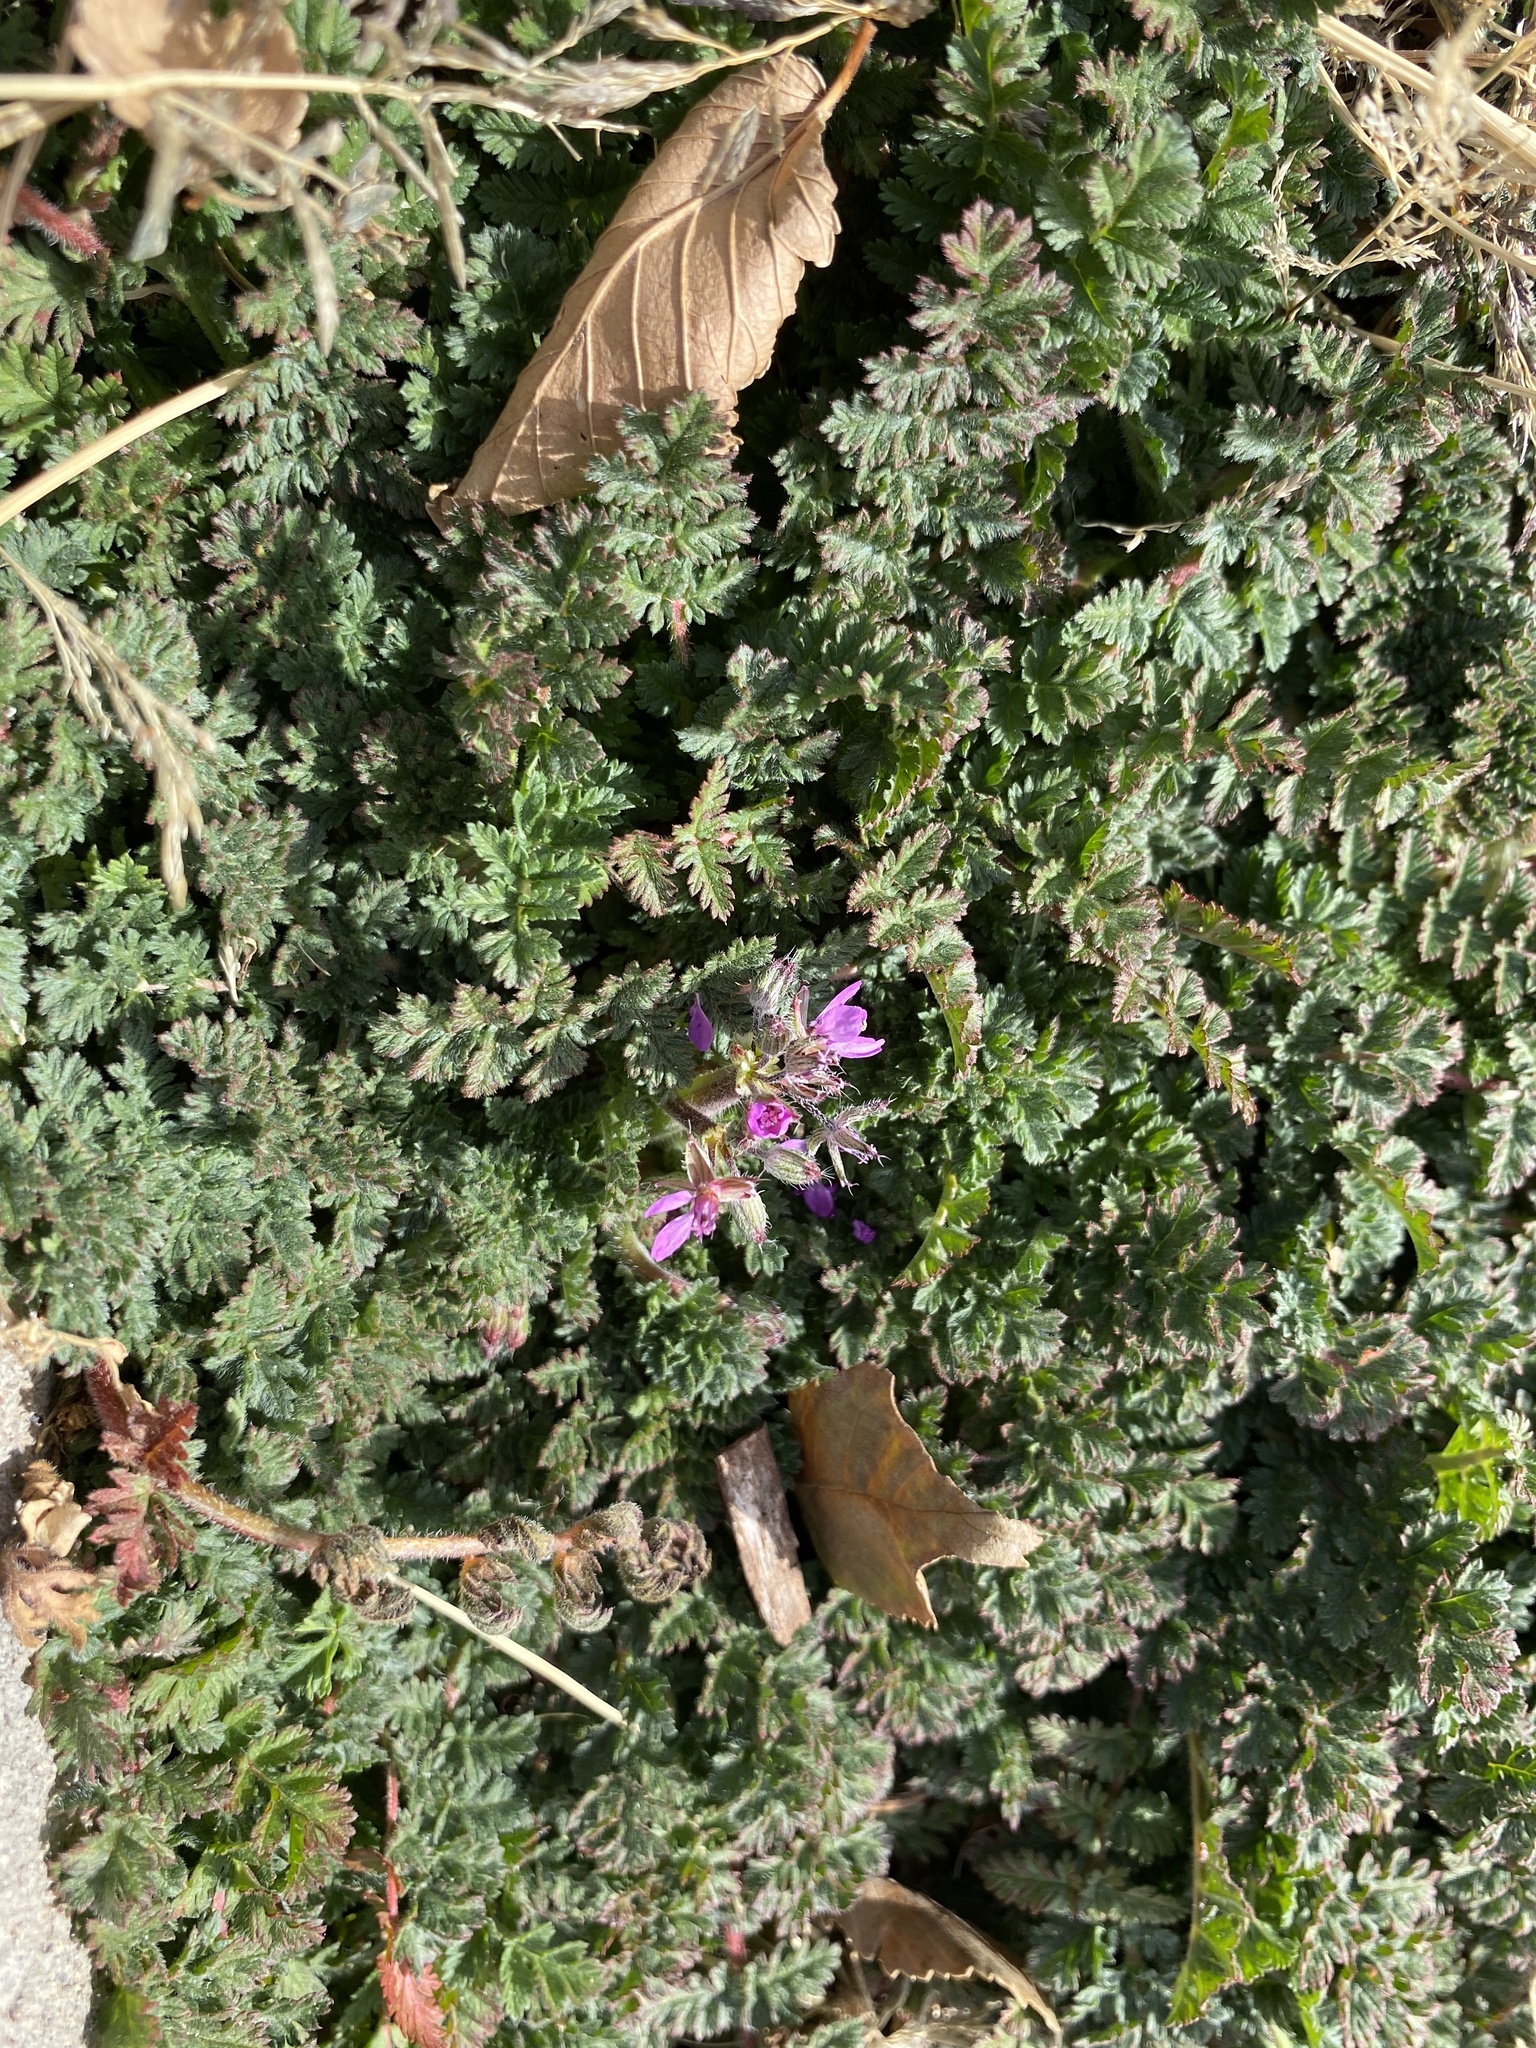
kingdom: Plantae
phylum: Tracheophyta
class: Magnoliopsida
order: Geraniales
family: Geraniaceae
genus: Erodium
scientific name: Erodium cicutarium
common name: Common stork's-bill
